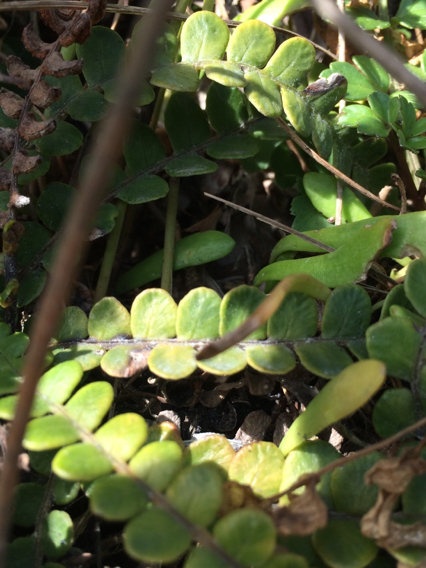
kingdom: Plantae
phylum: Tracheophyta
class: Polypodiopsida
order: Polypodiales
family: Blechnaceae
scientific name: Blechnaceae
